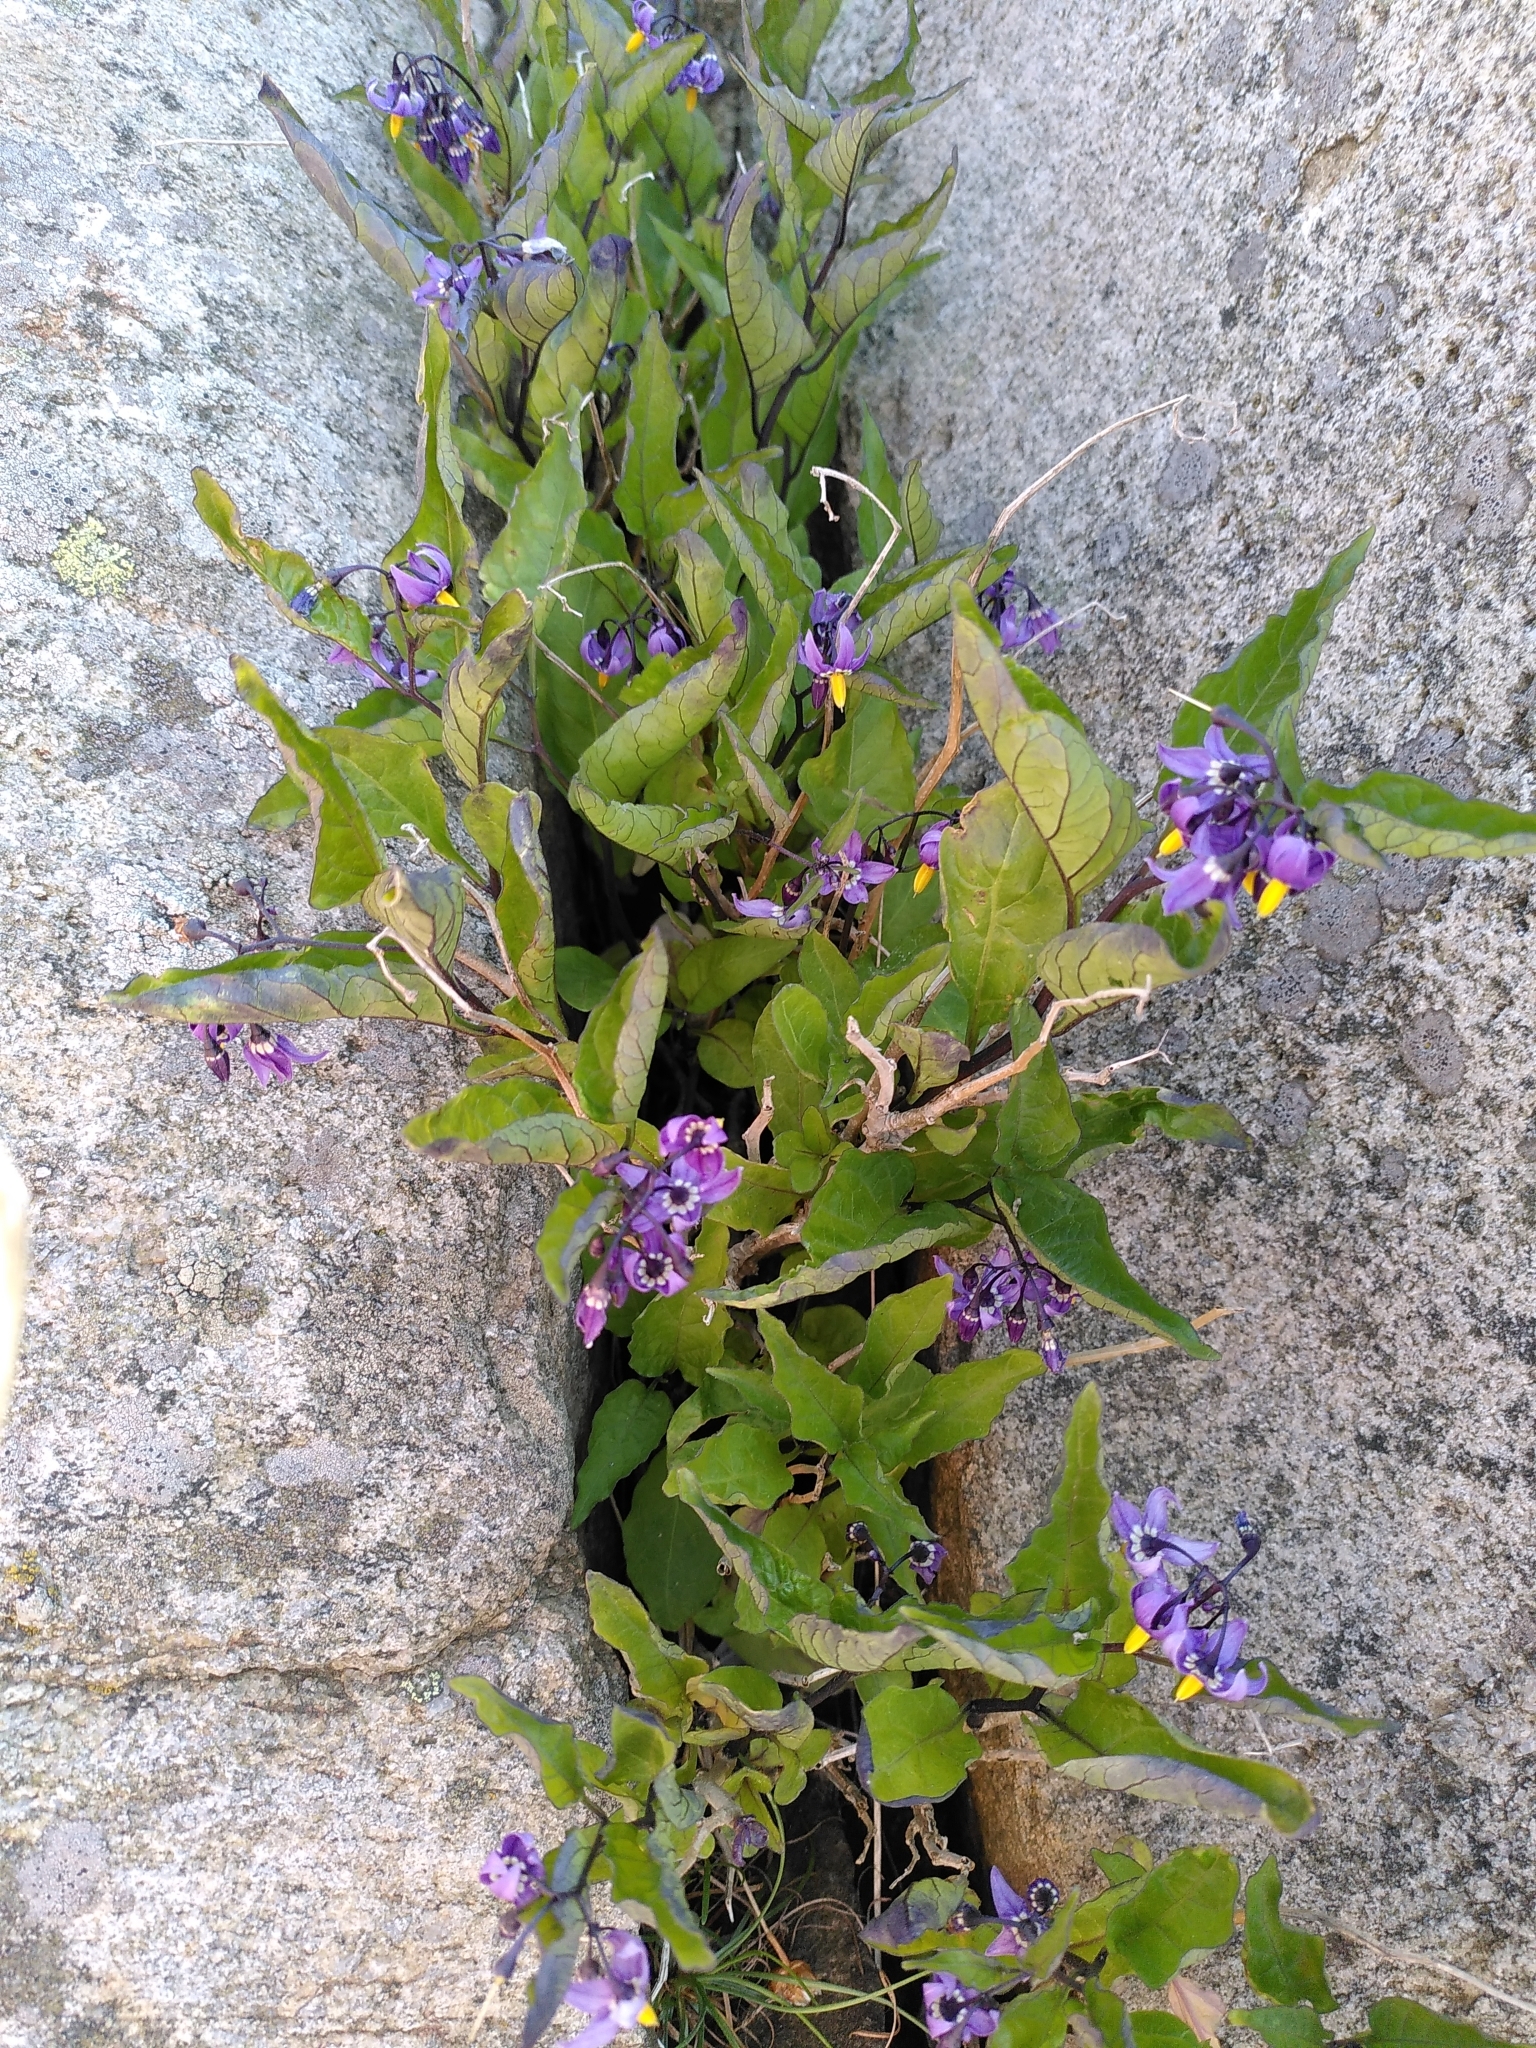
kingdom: Plantae
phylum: Tracheophyta
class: Magnoliopsida
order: Solanales
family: Solanaceae
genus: Solanum
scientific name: Solanum dulcamara
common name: Climbing nightshade
